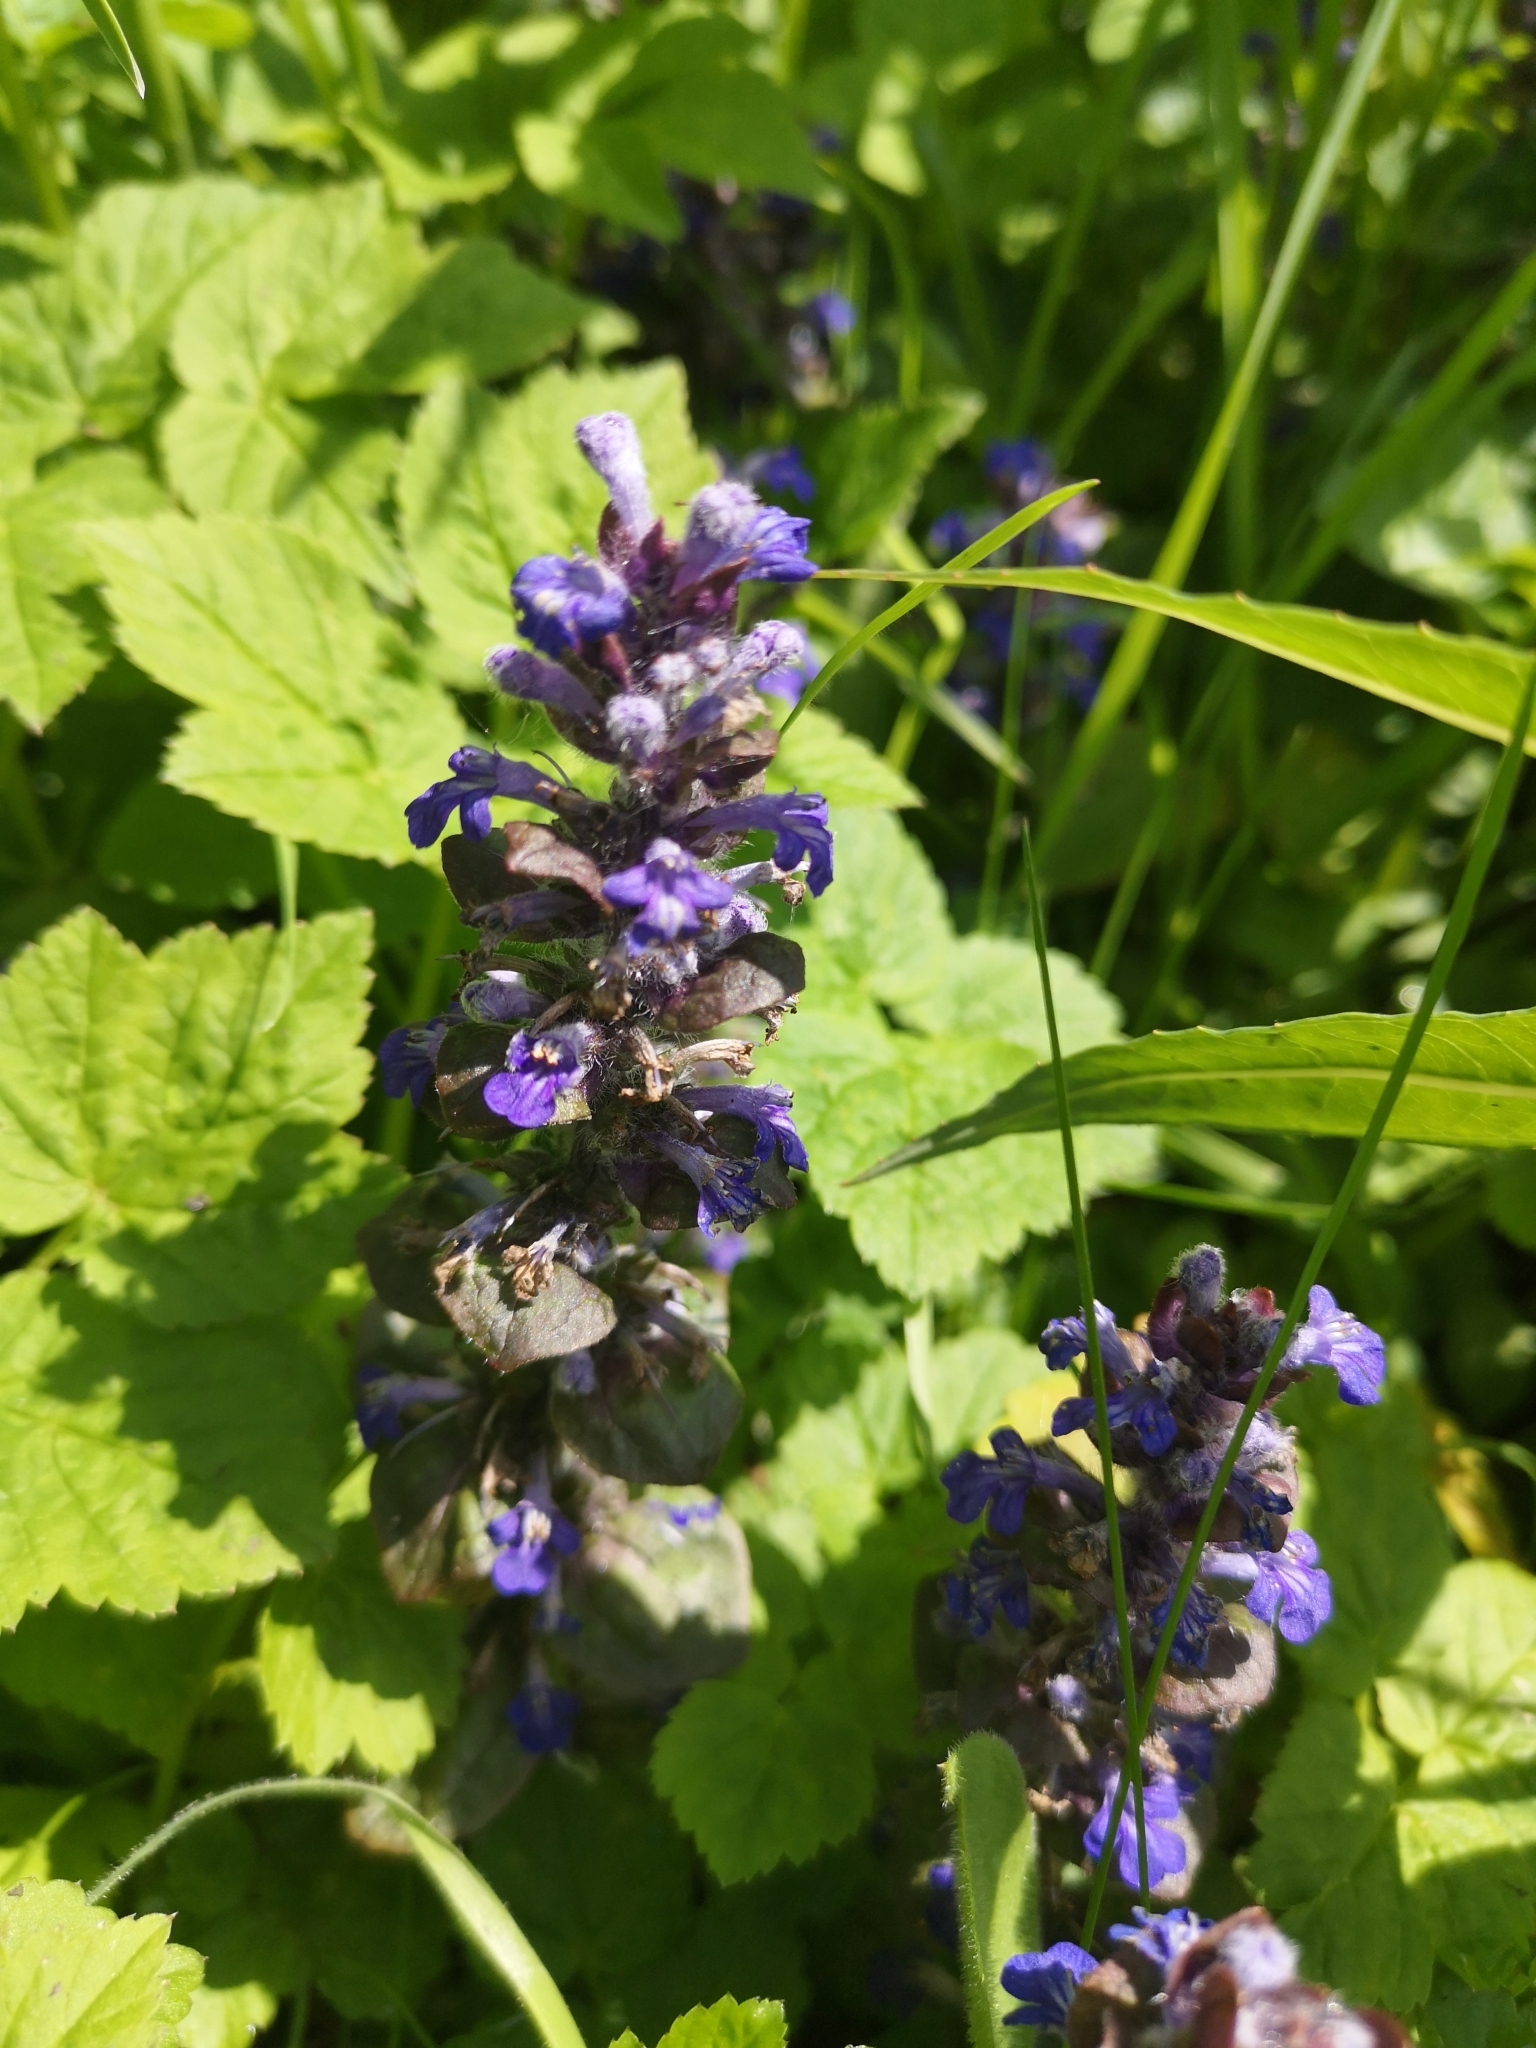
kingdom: Plantae
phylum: Tracheophyta
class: Magnoliopsida
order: Lamiales
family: Lamiaceae
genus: Ajuga
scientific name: Ajuga reptans
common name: Bugle
